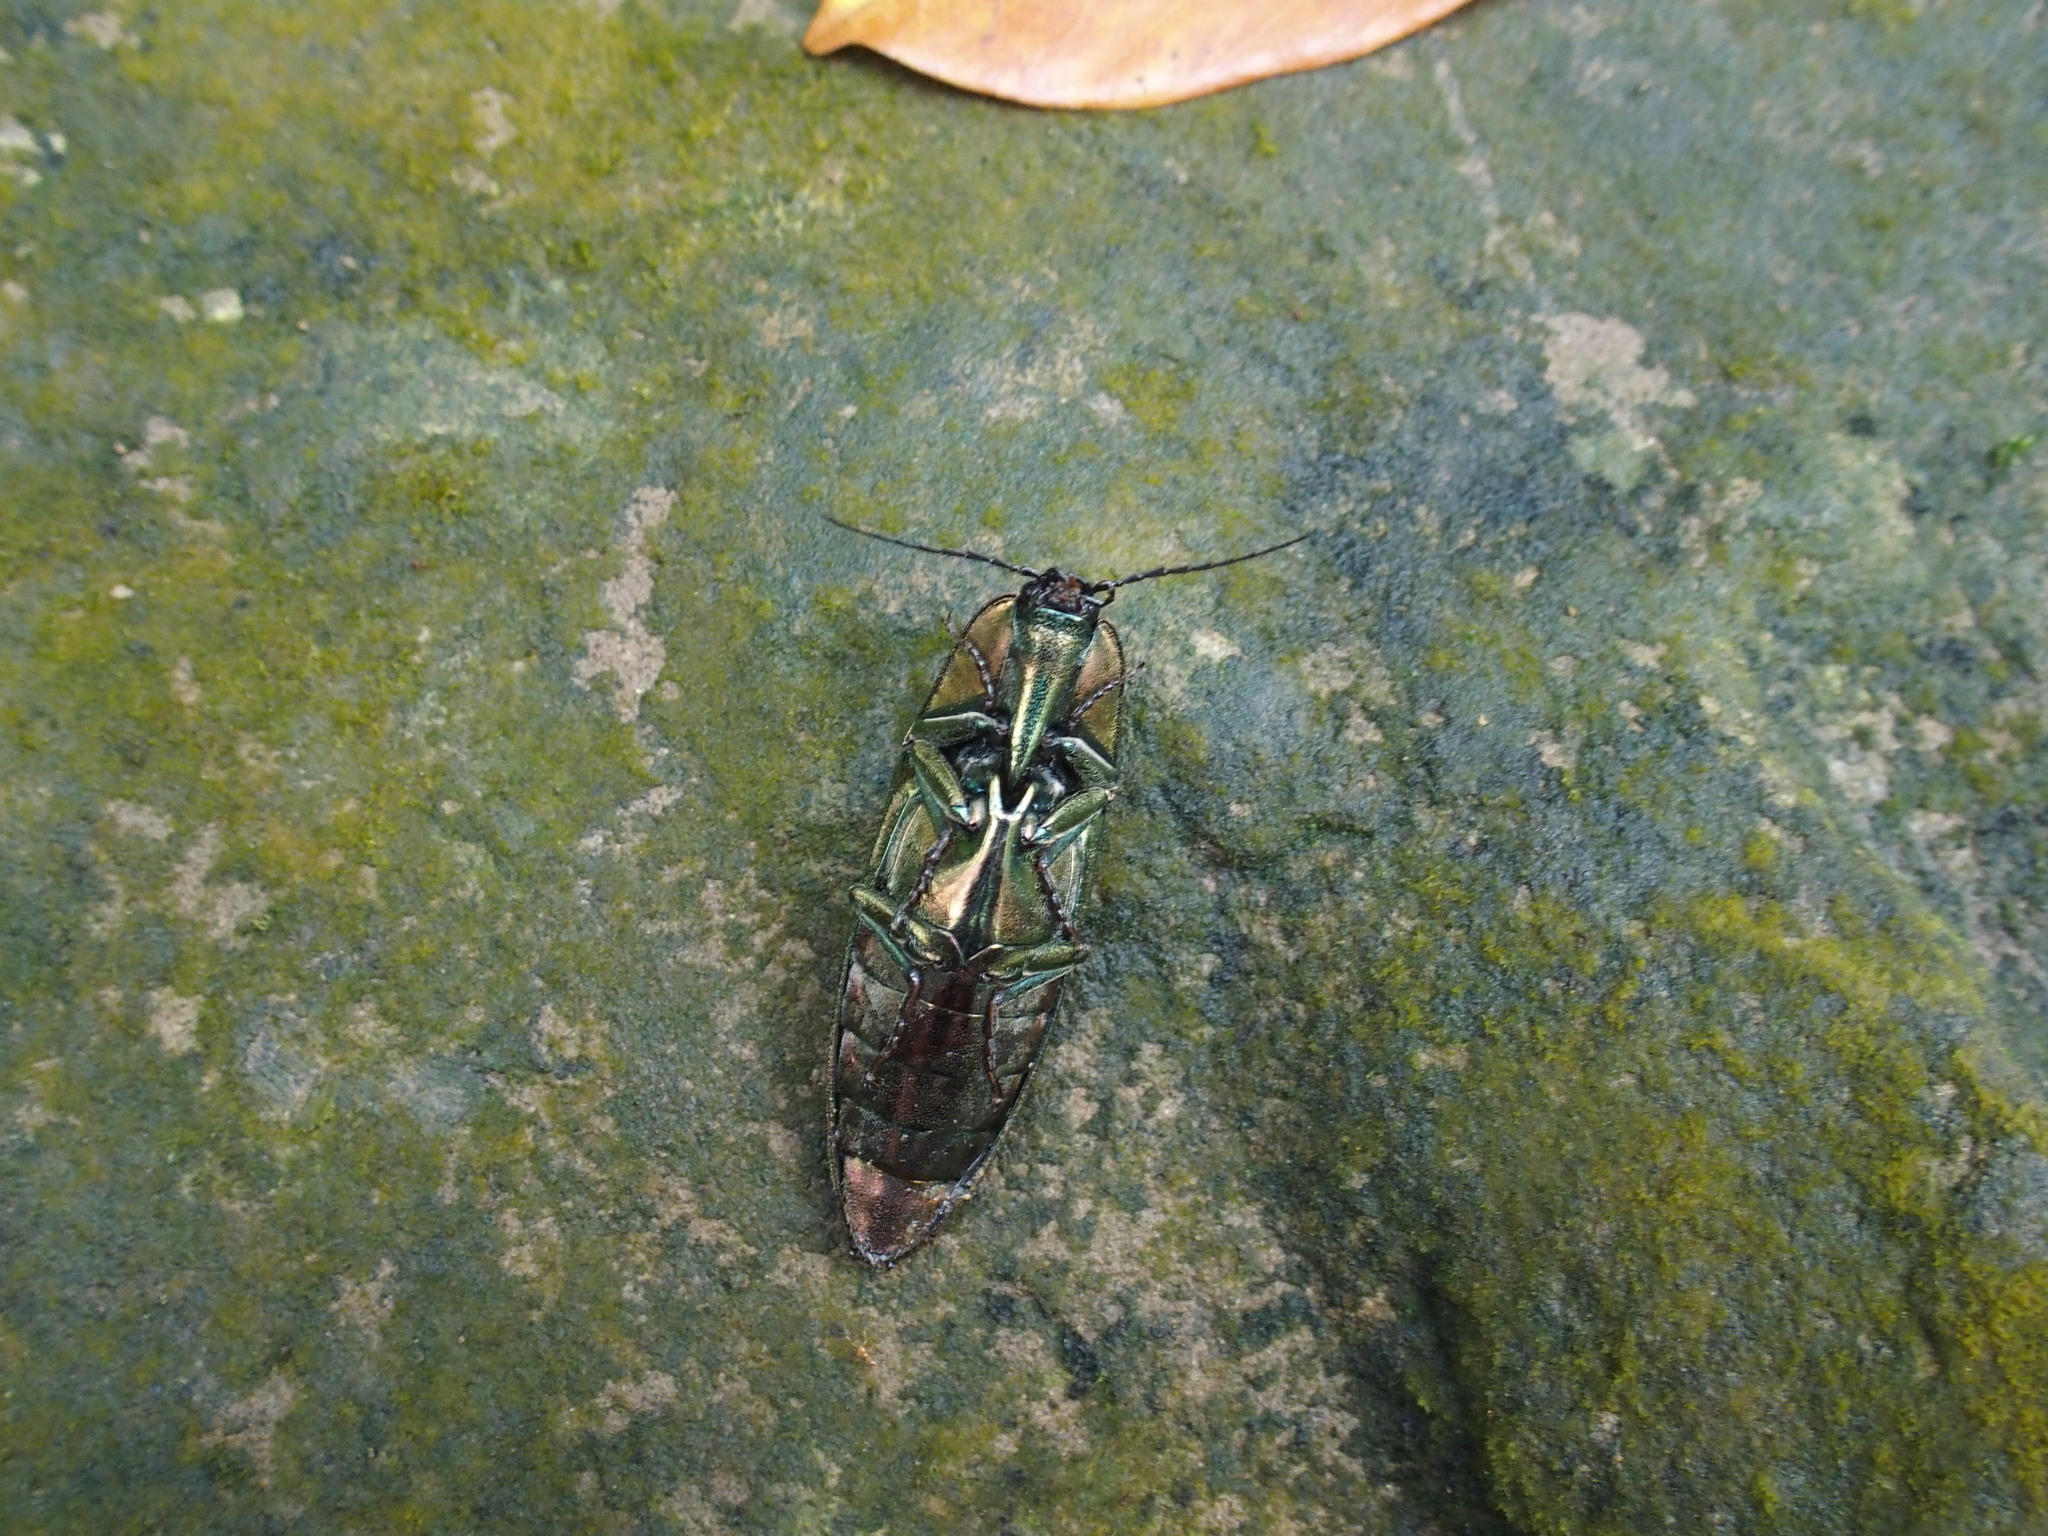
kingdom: Animalia
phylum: Arthropoda
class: Insecta
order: Coleoptera
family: Elateridae
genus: Campsosternus
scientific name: Campsosternus auratus
